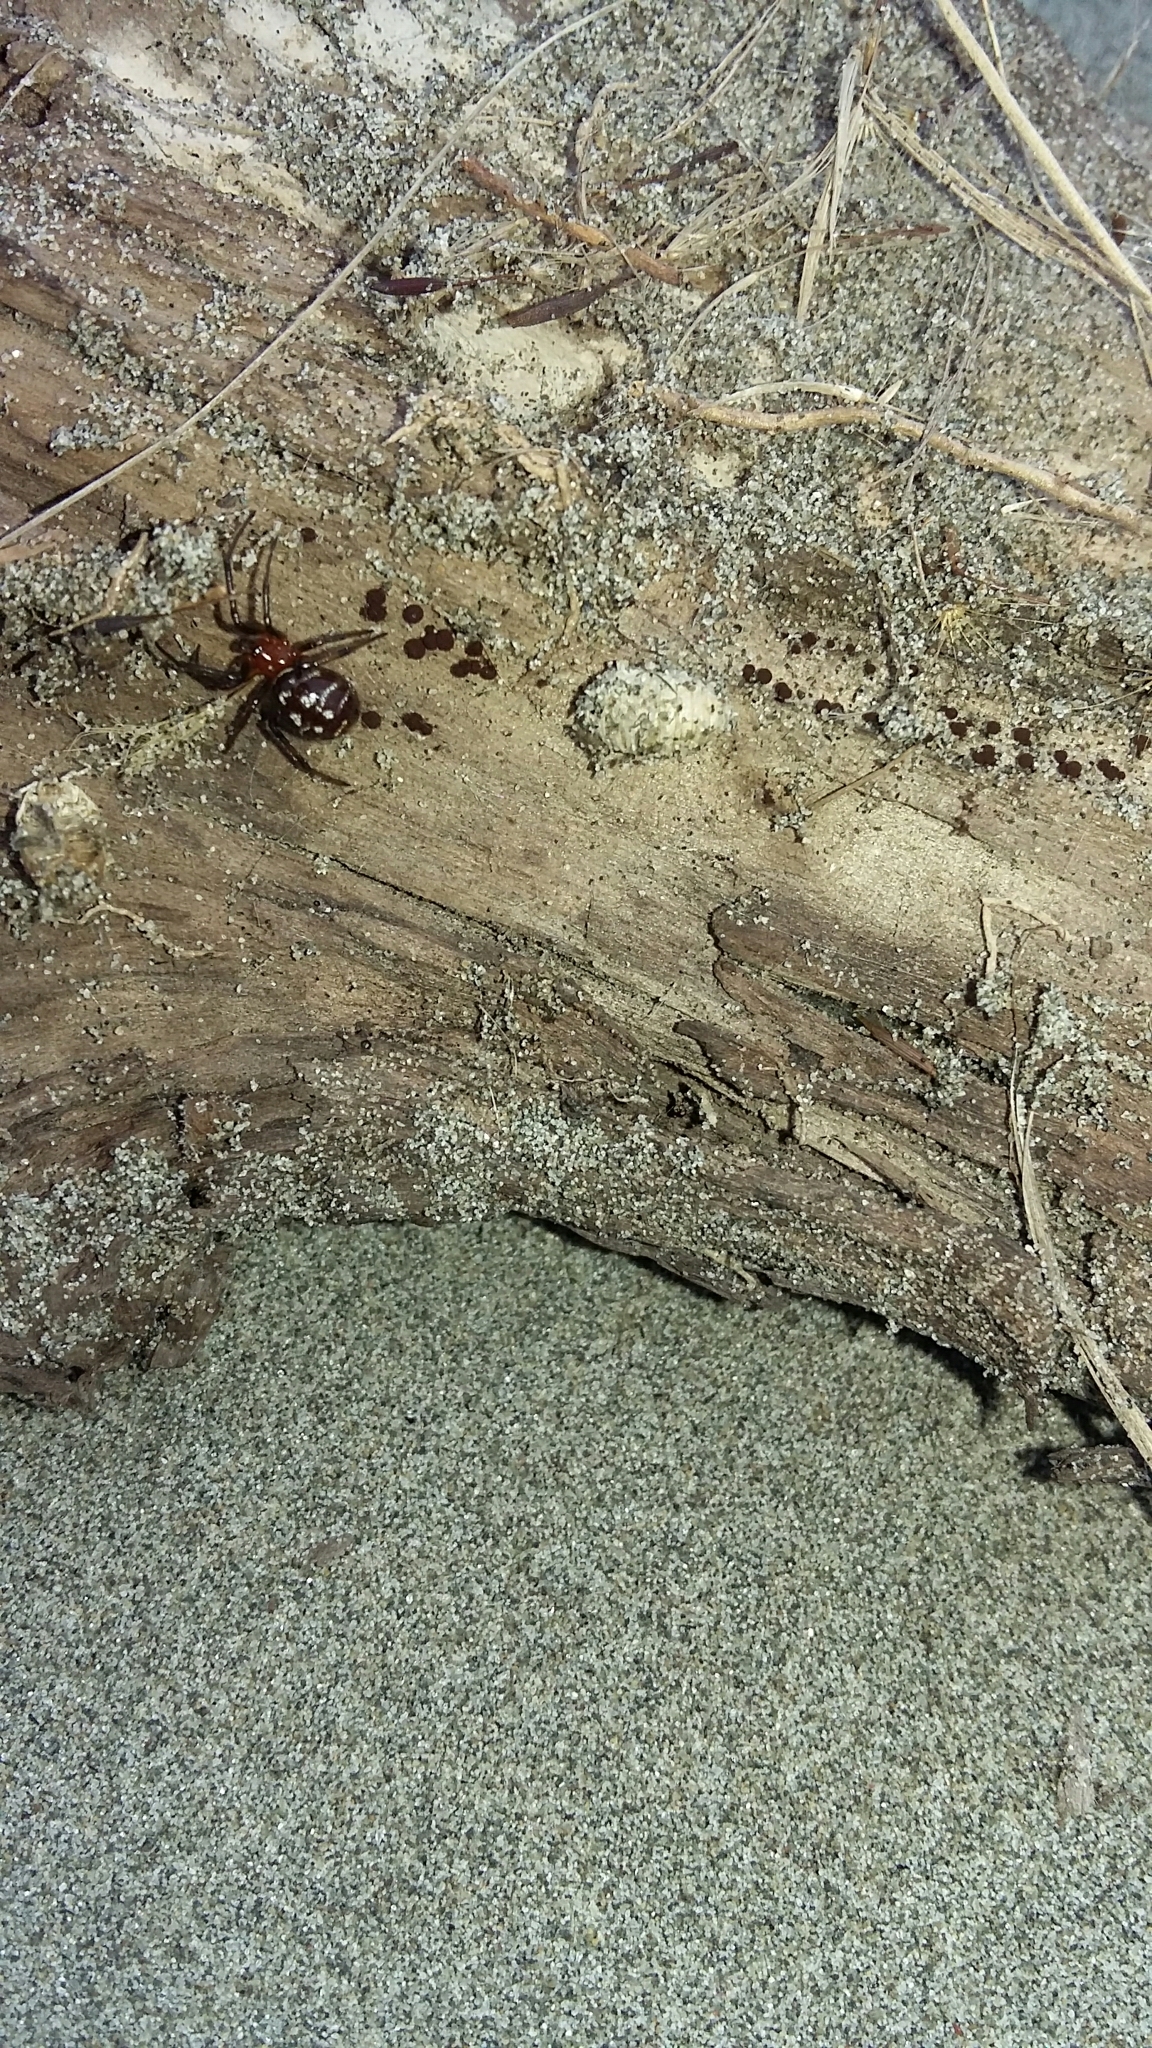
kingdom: Animalia
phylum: Arthropoda
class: Arachnida
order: Araneae
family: Theridiidae
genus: Steatoda
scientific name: Steatoda capensis
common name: Cobweb weaver
